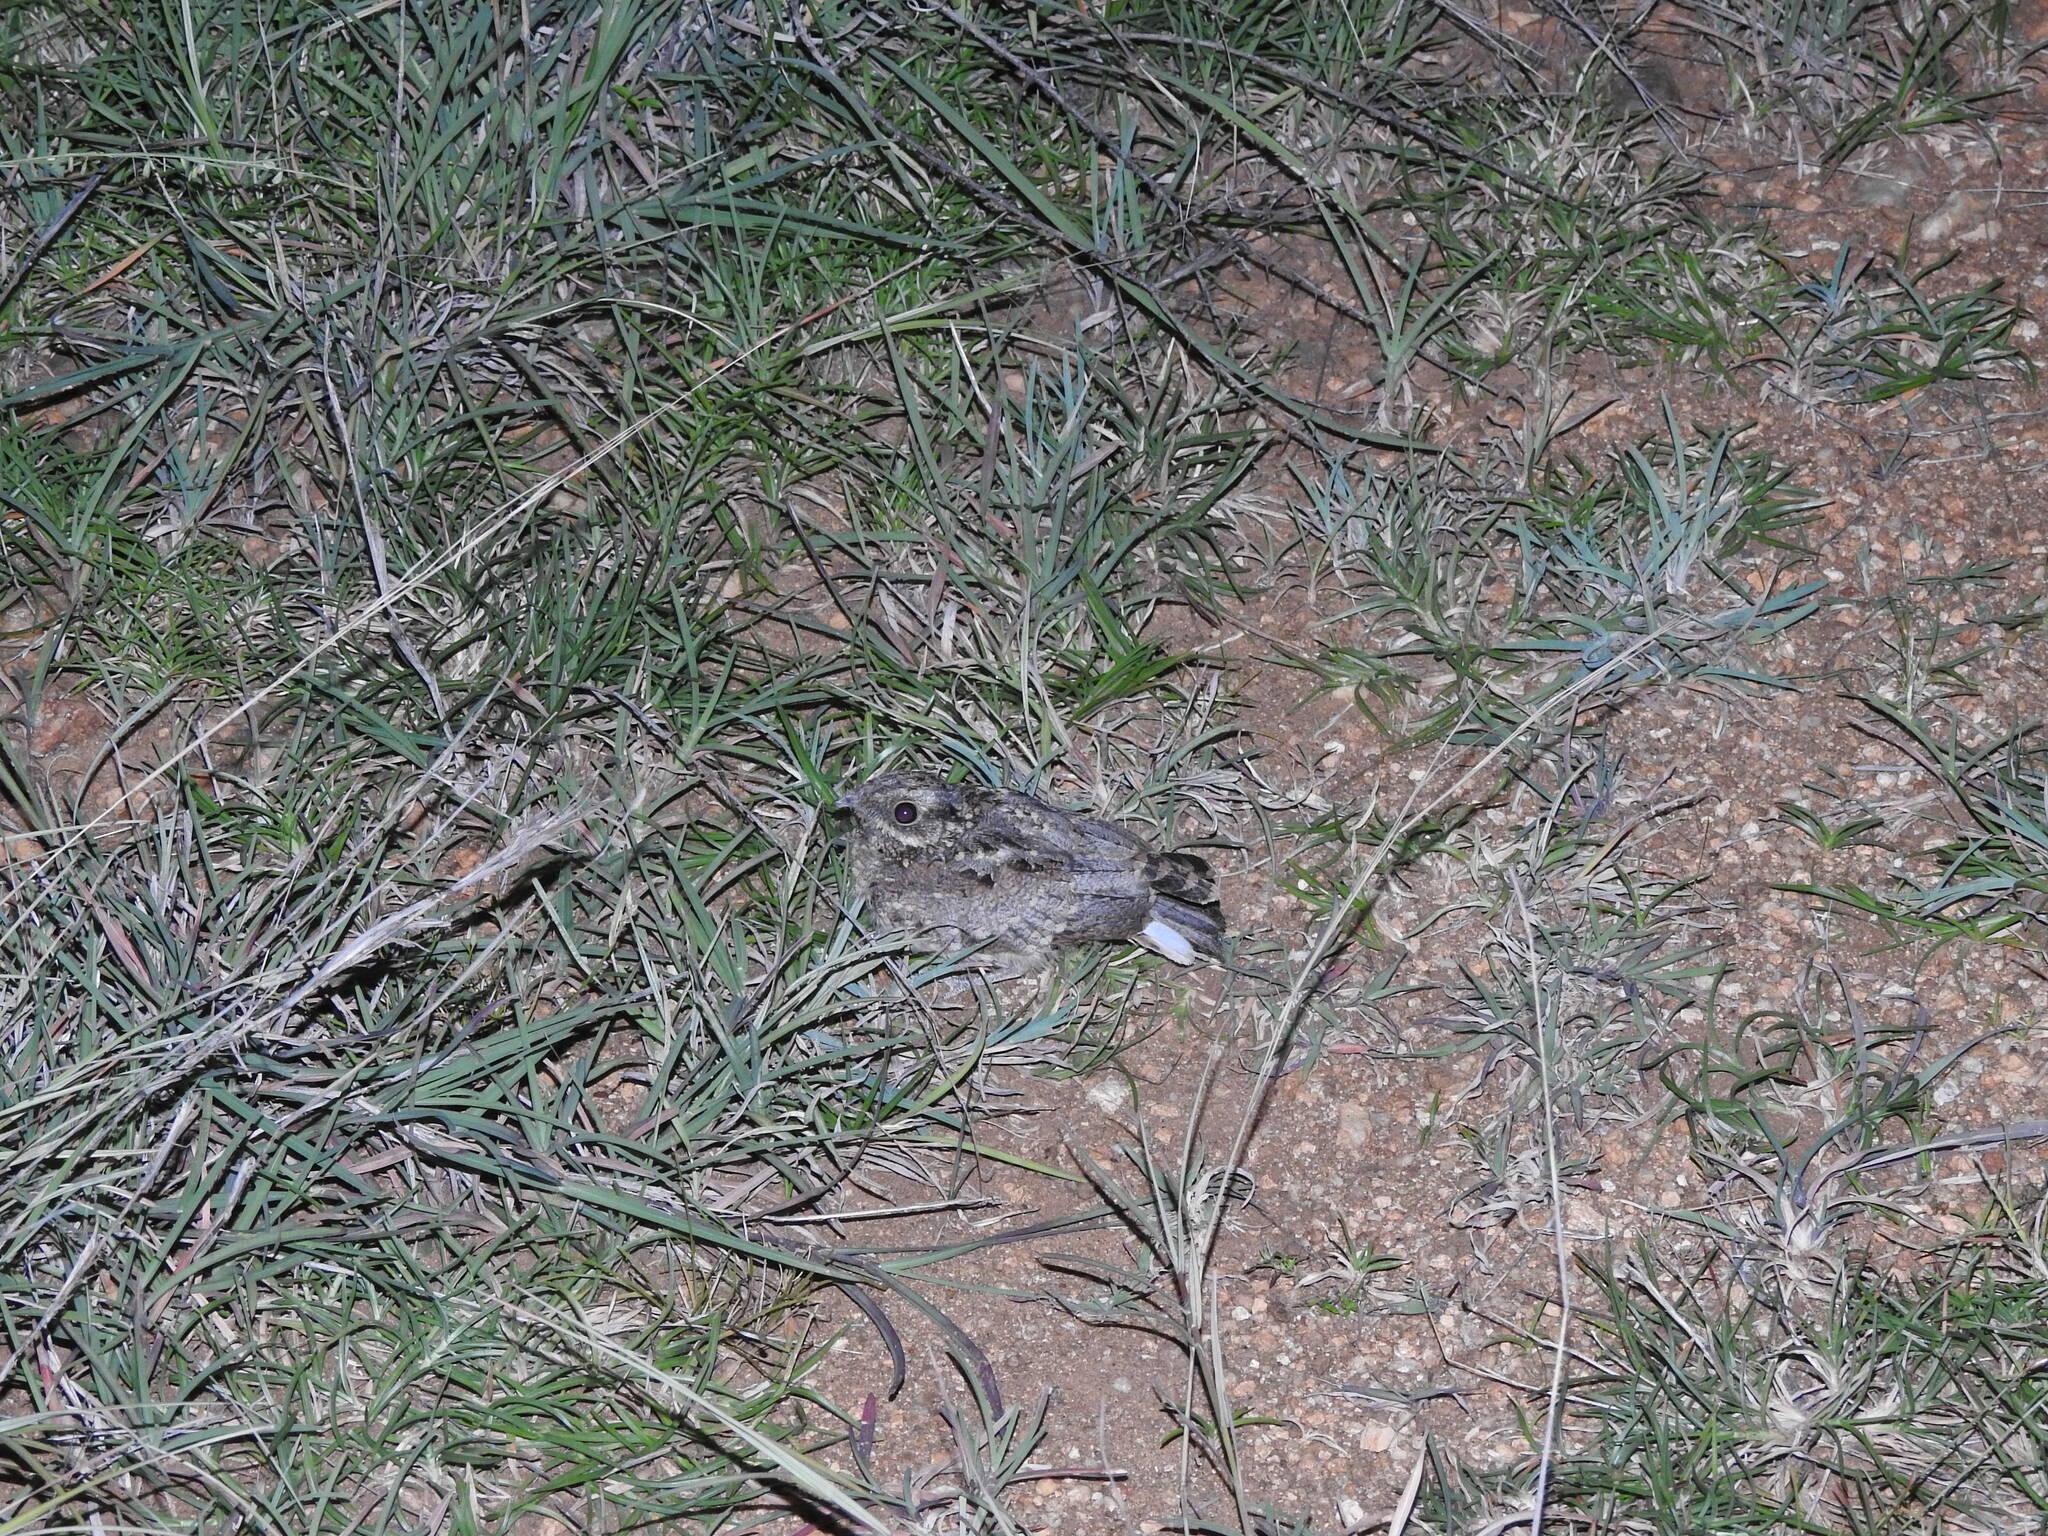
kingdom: Animalia
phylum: Chordata
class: Aves
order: Caprimulgiformes
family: Caprimulgidae
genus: Caprimulgus
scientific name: Caprimulgus asiaticus
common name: Indian nightjar
